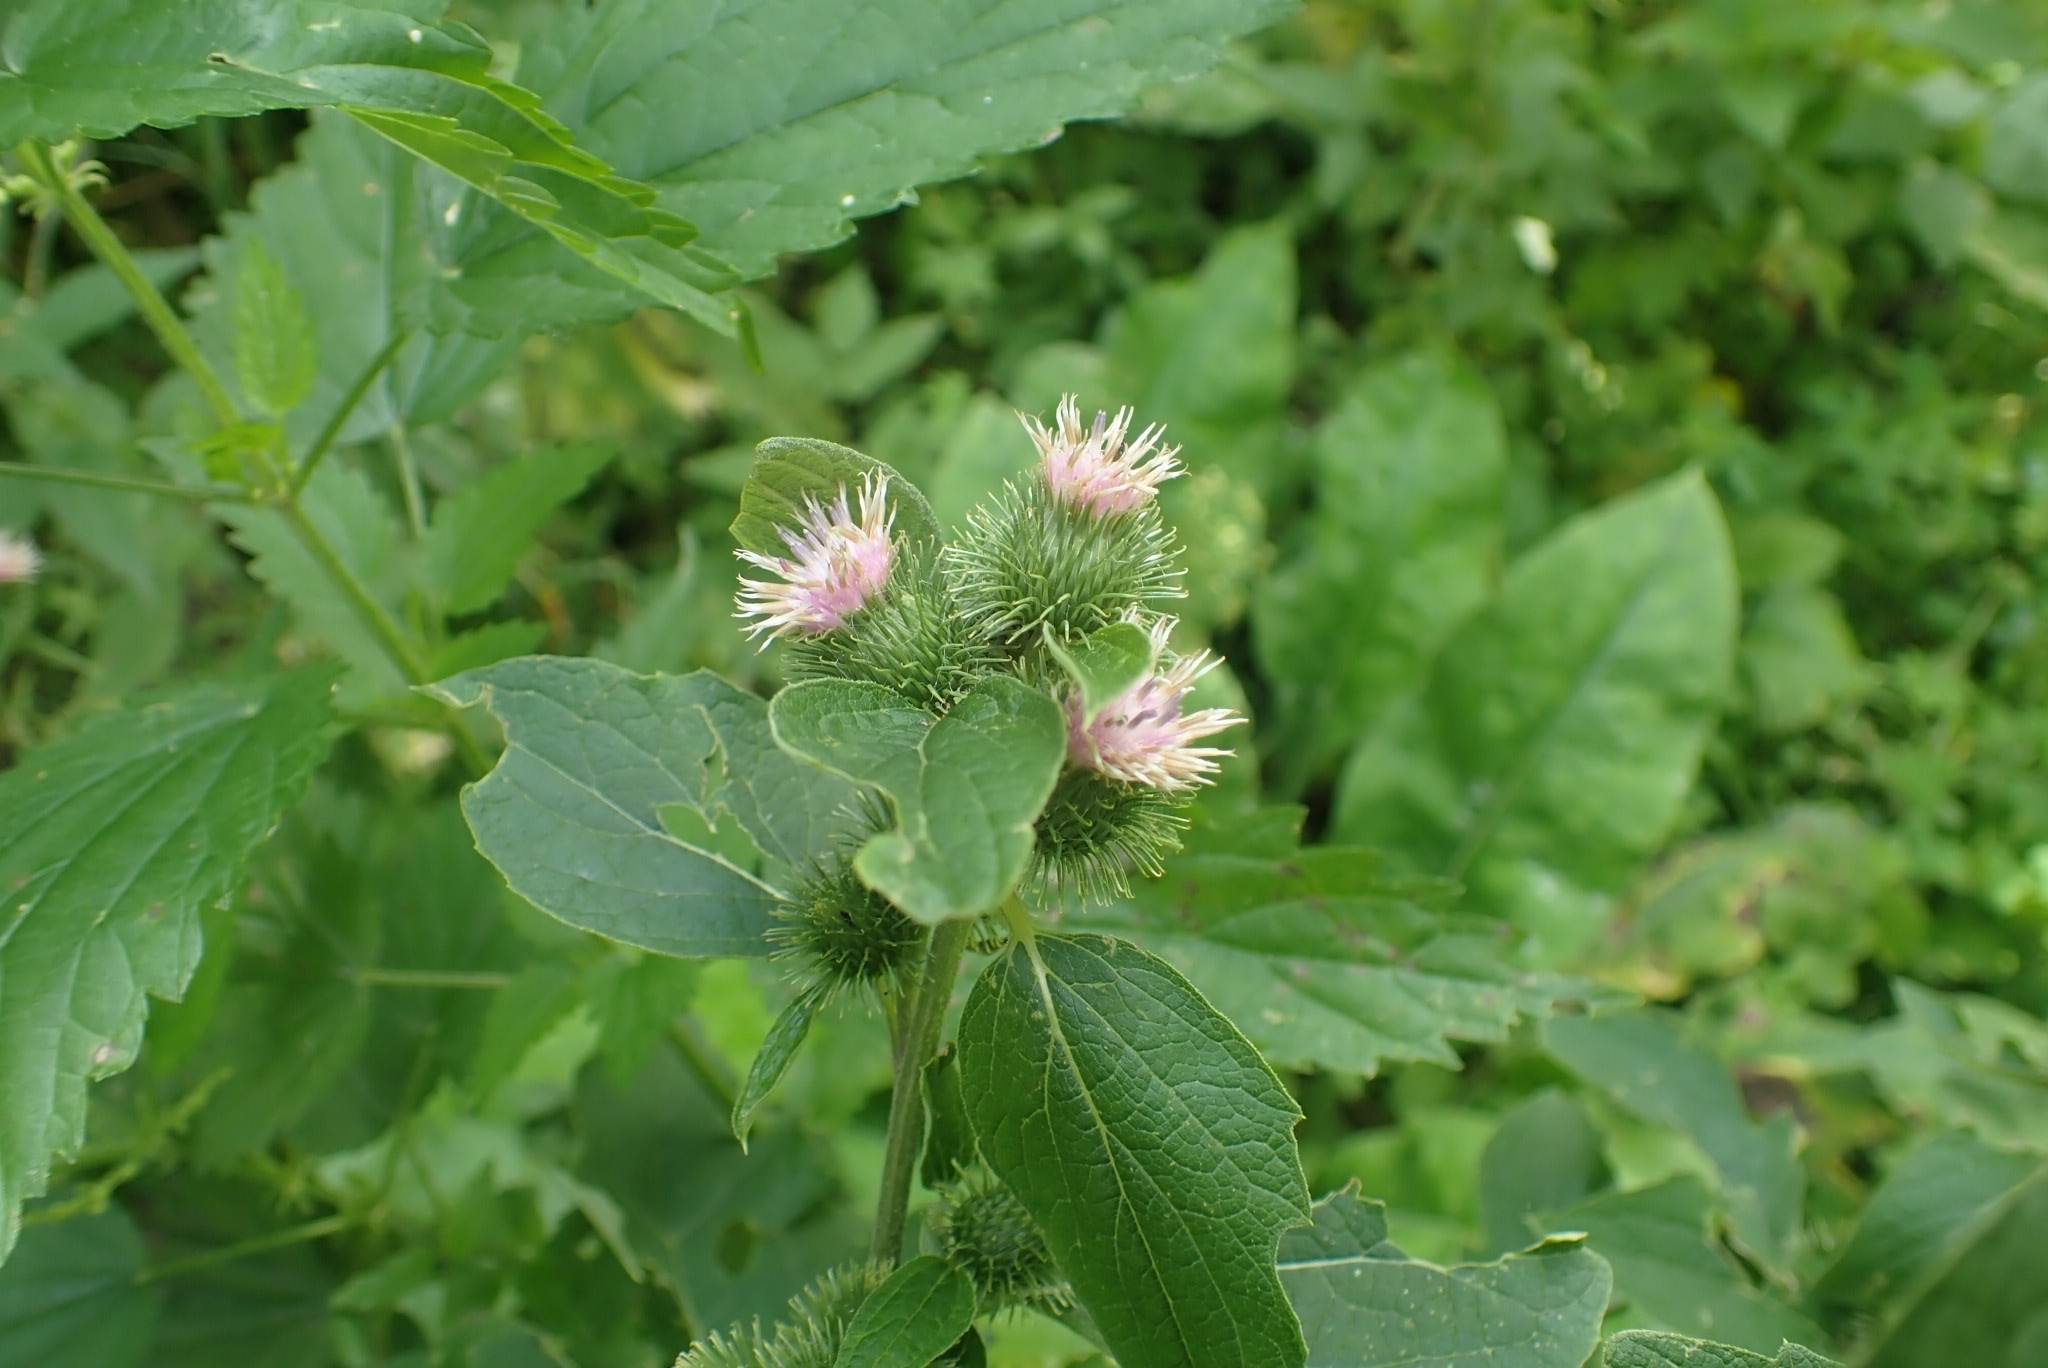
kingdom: Plantae
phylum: Tracheophyta
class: Magnoliopsida
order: Asterales
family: Asteraceae
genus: Arctium
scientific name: Arctium minus
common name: Lesser burdock
